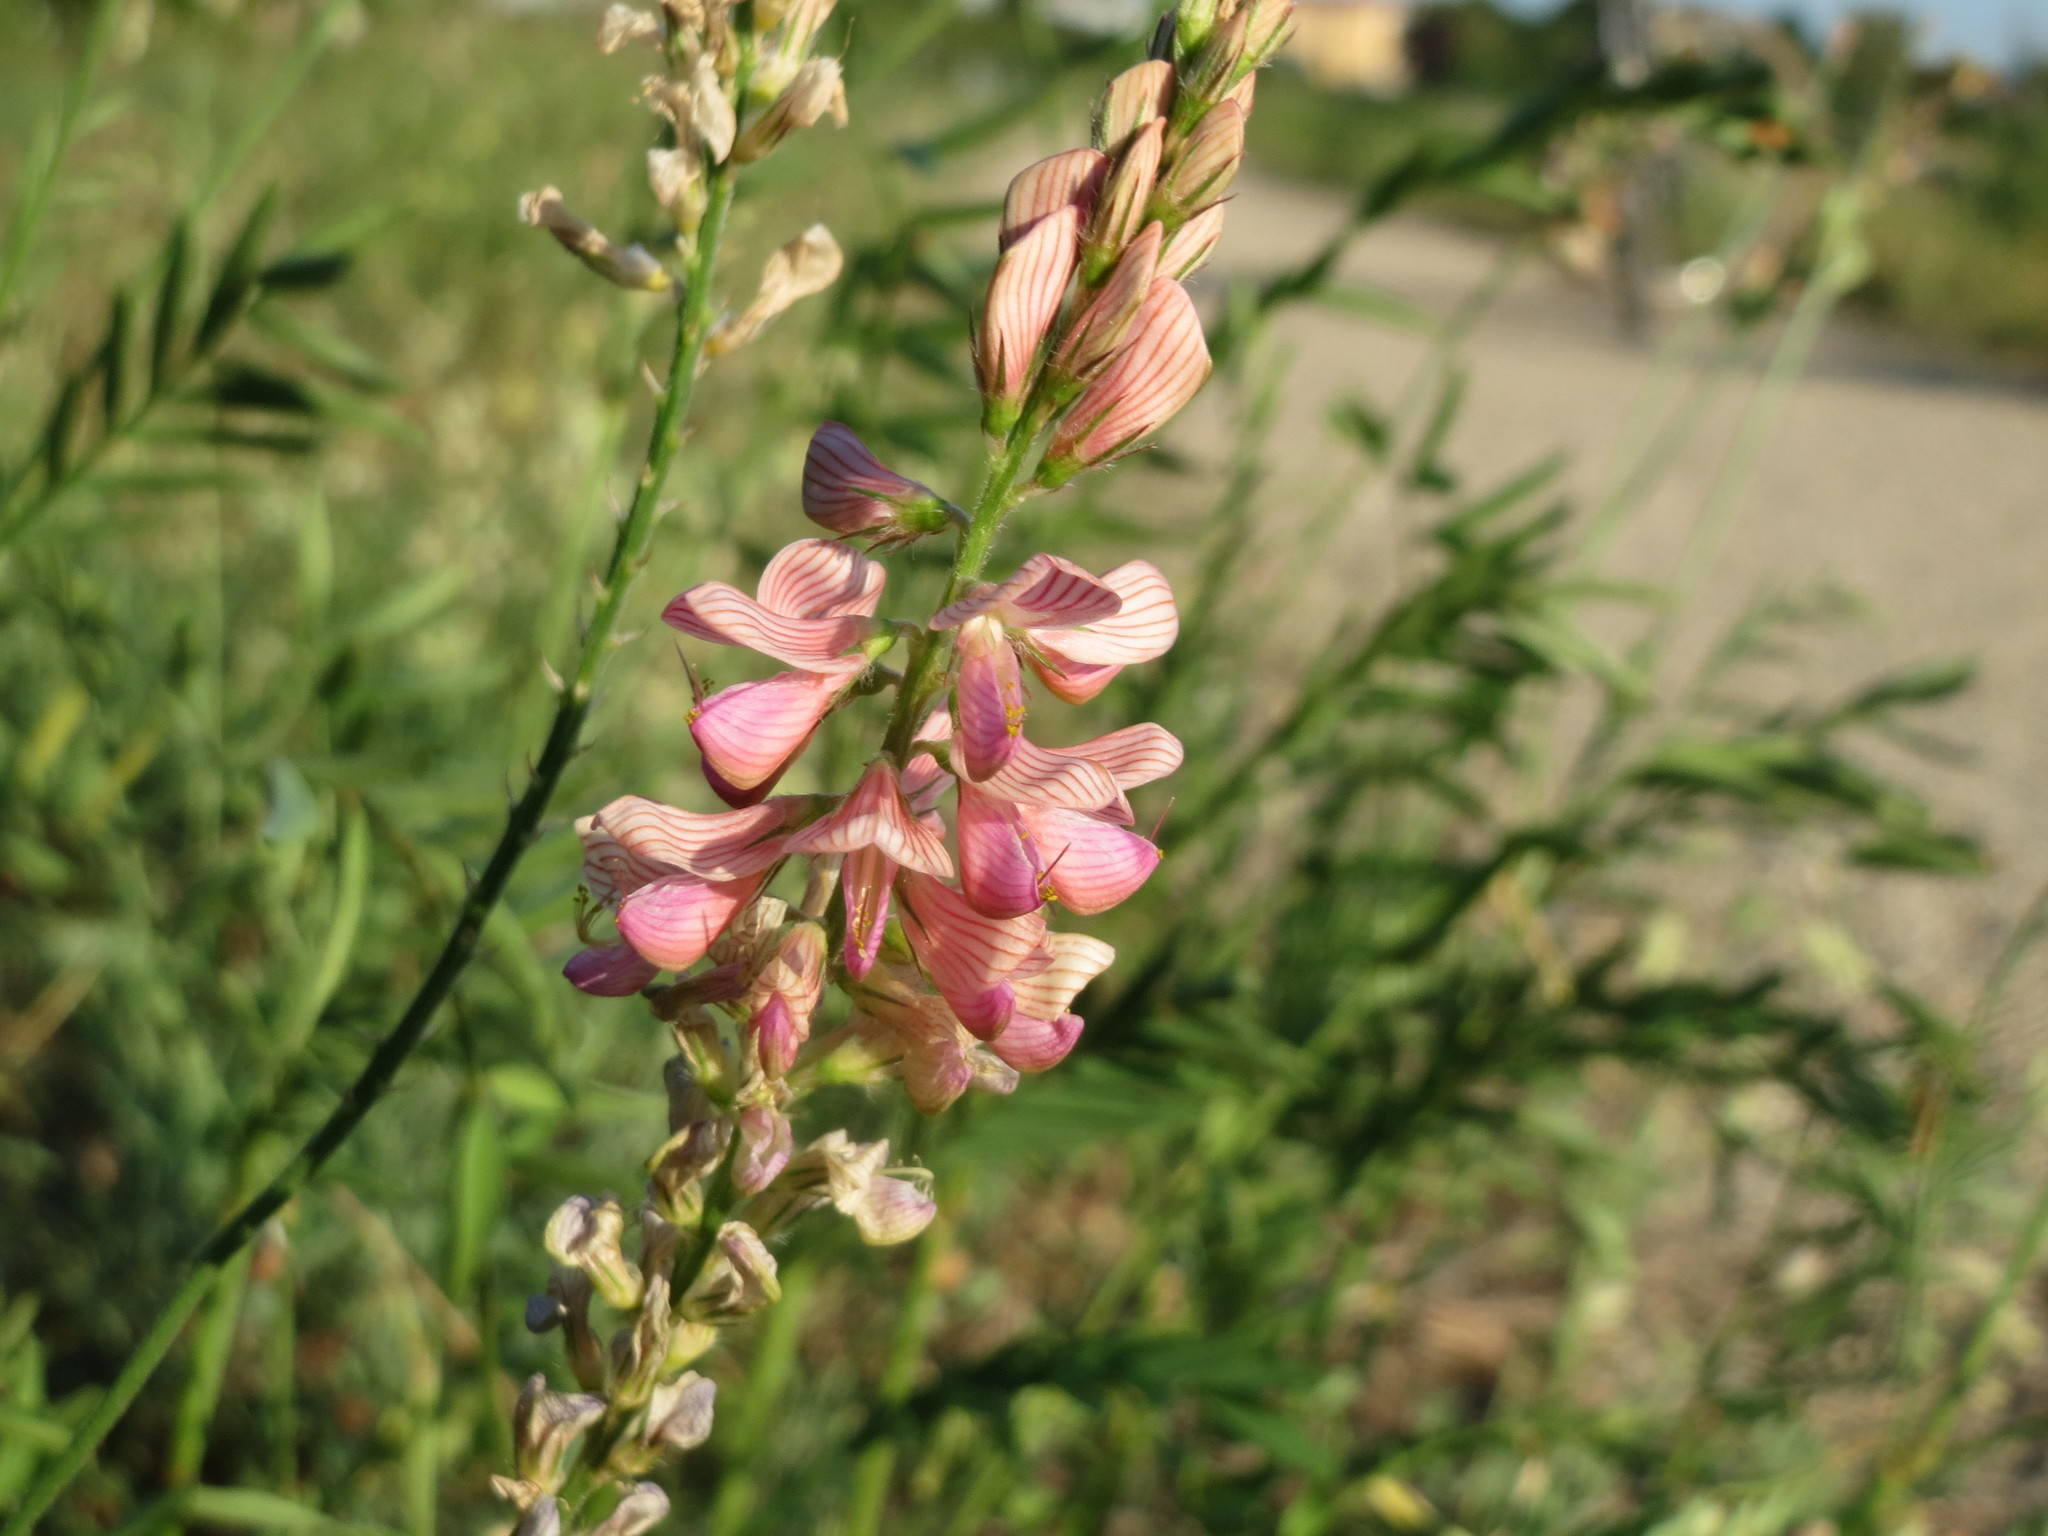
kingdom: Plantae
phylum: Tracheophyta
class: Magnoliopsida
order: Fabales
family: Fabaceae
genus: Onobrychis
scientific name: Onobrychis viciifolia
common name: Sainfoin
